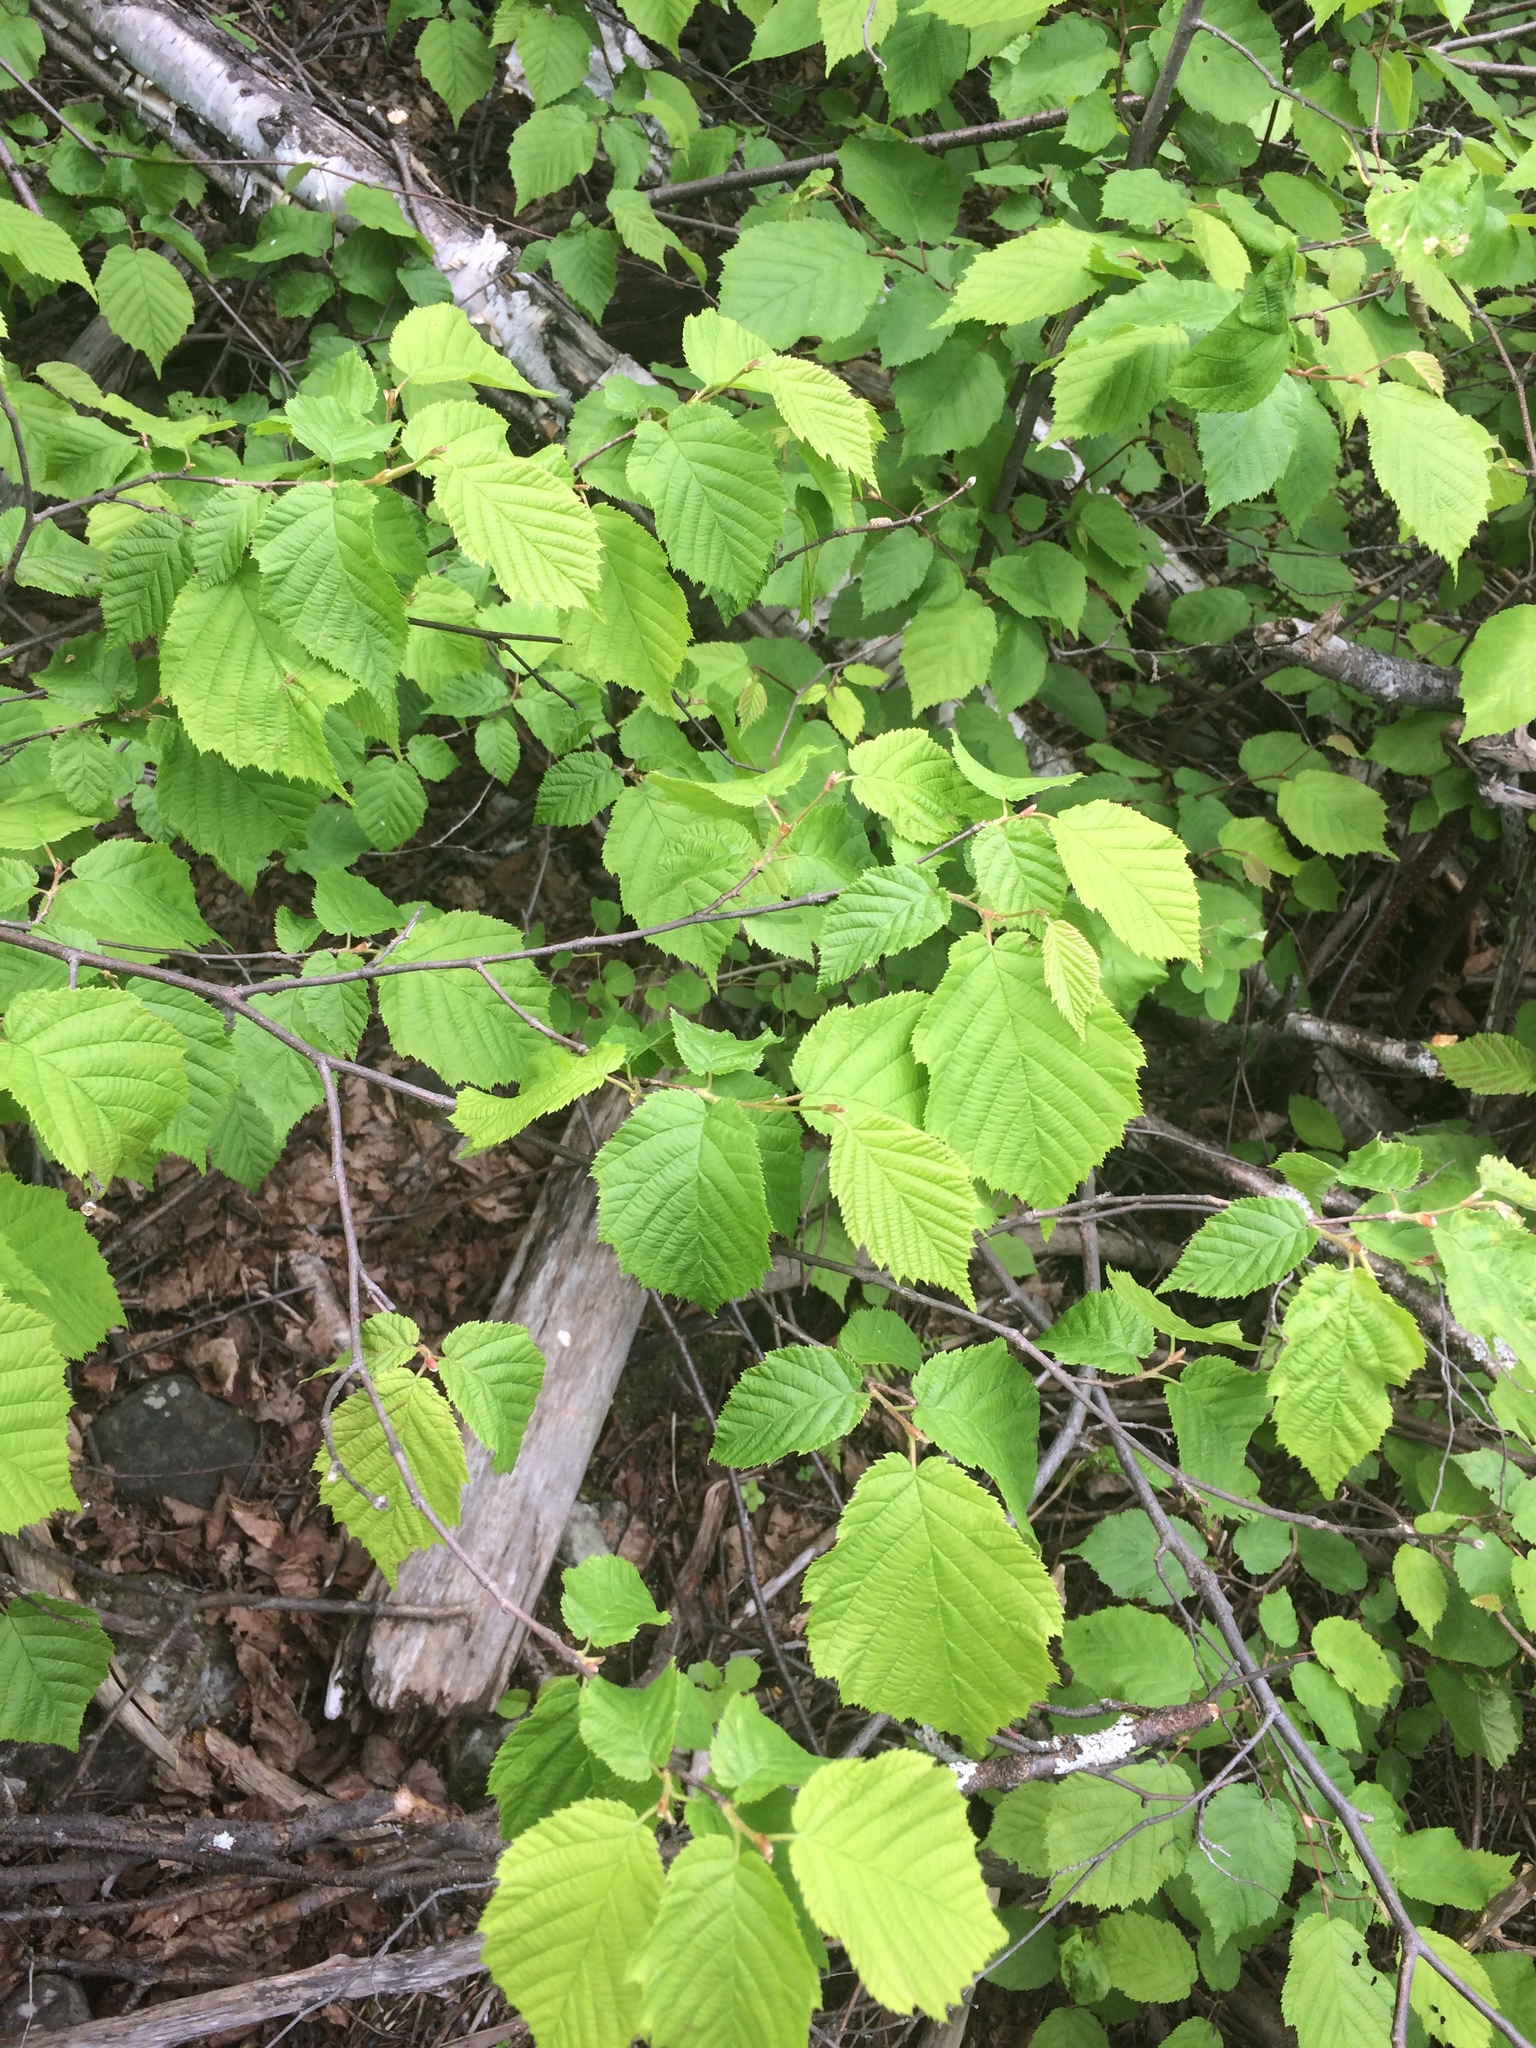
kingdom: Plantae
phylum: Tracheophyta
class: Magnoliopsida
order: Fagales
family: Betulaceae
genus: Corylus
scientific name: Corylus cornuta
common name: Beaked hazel
